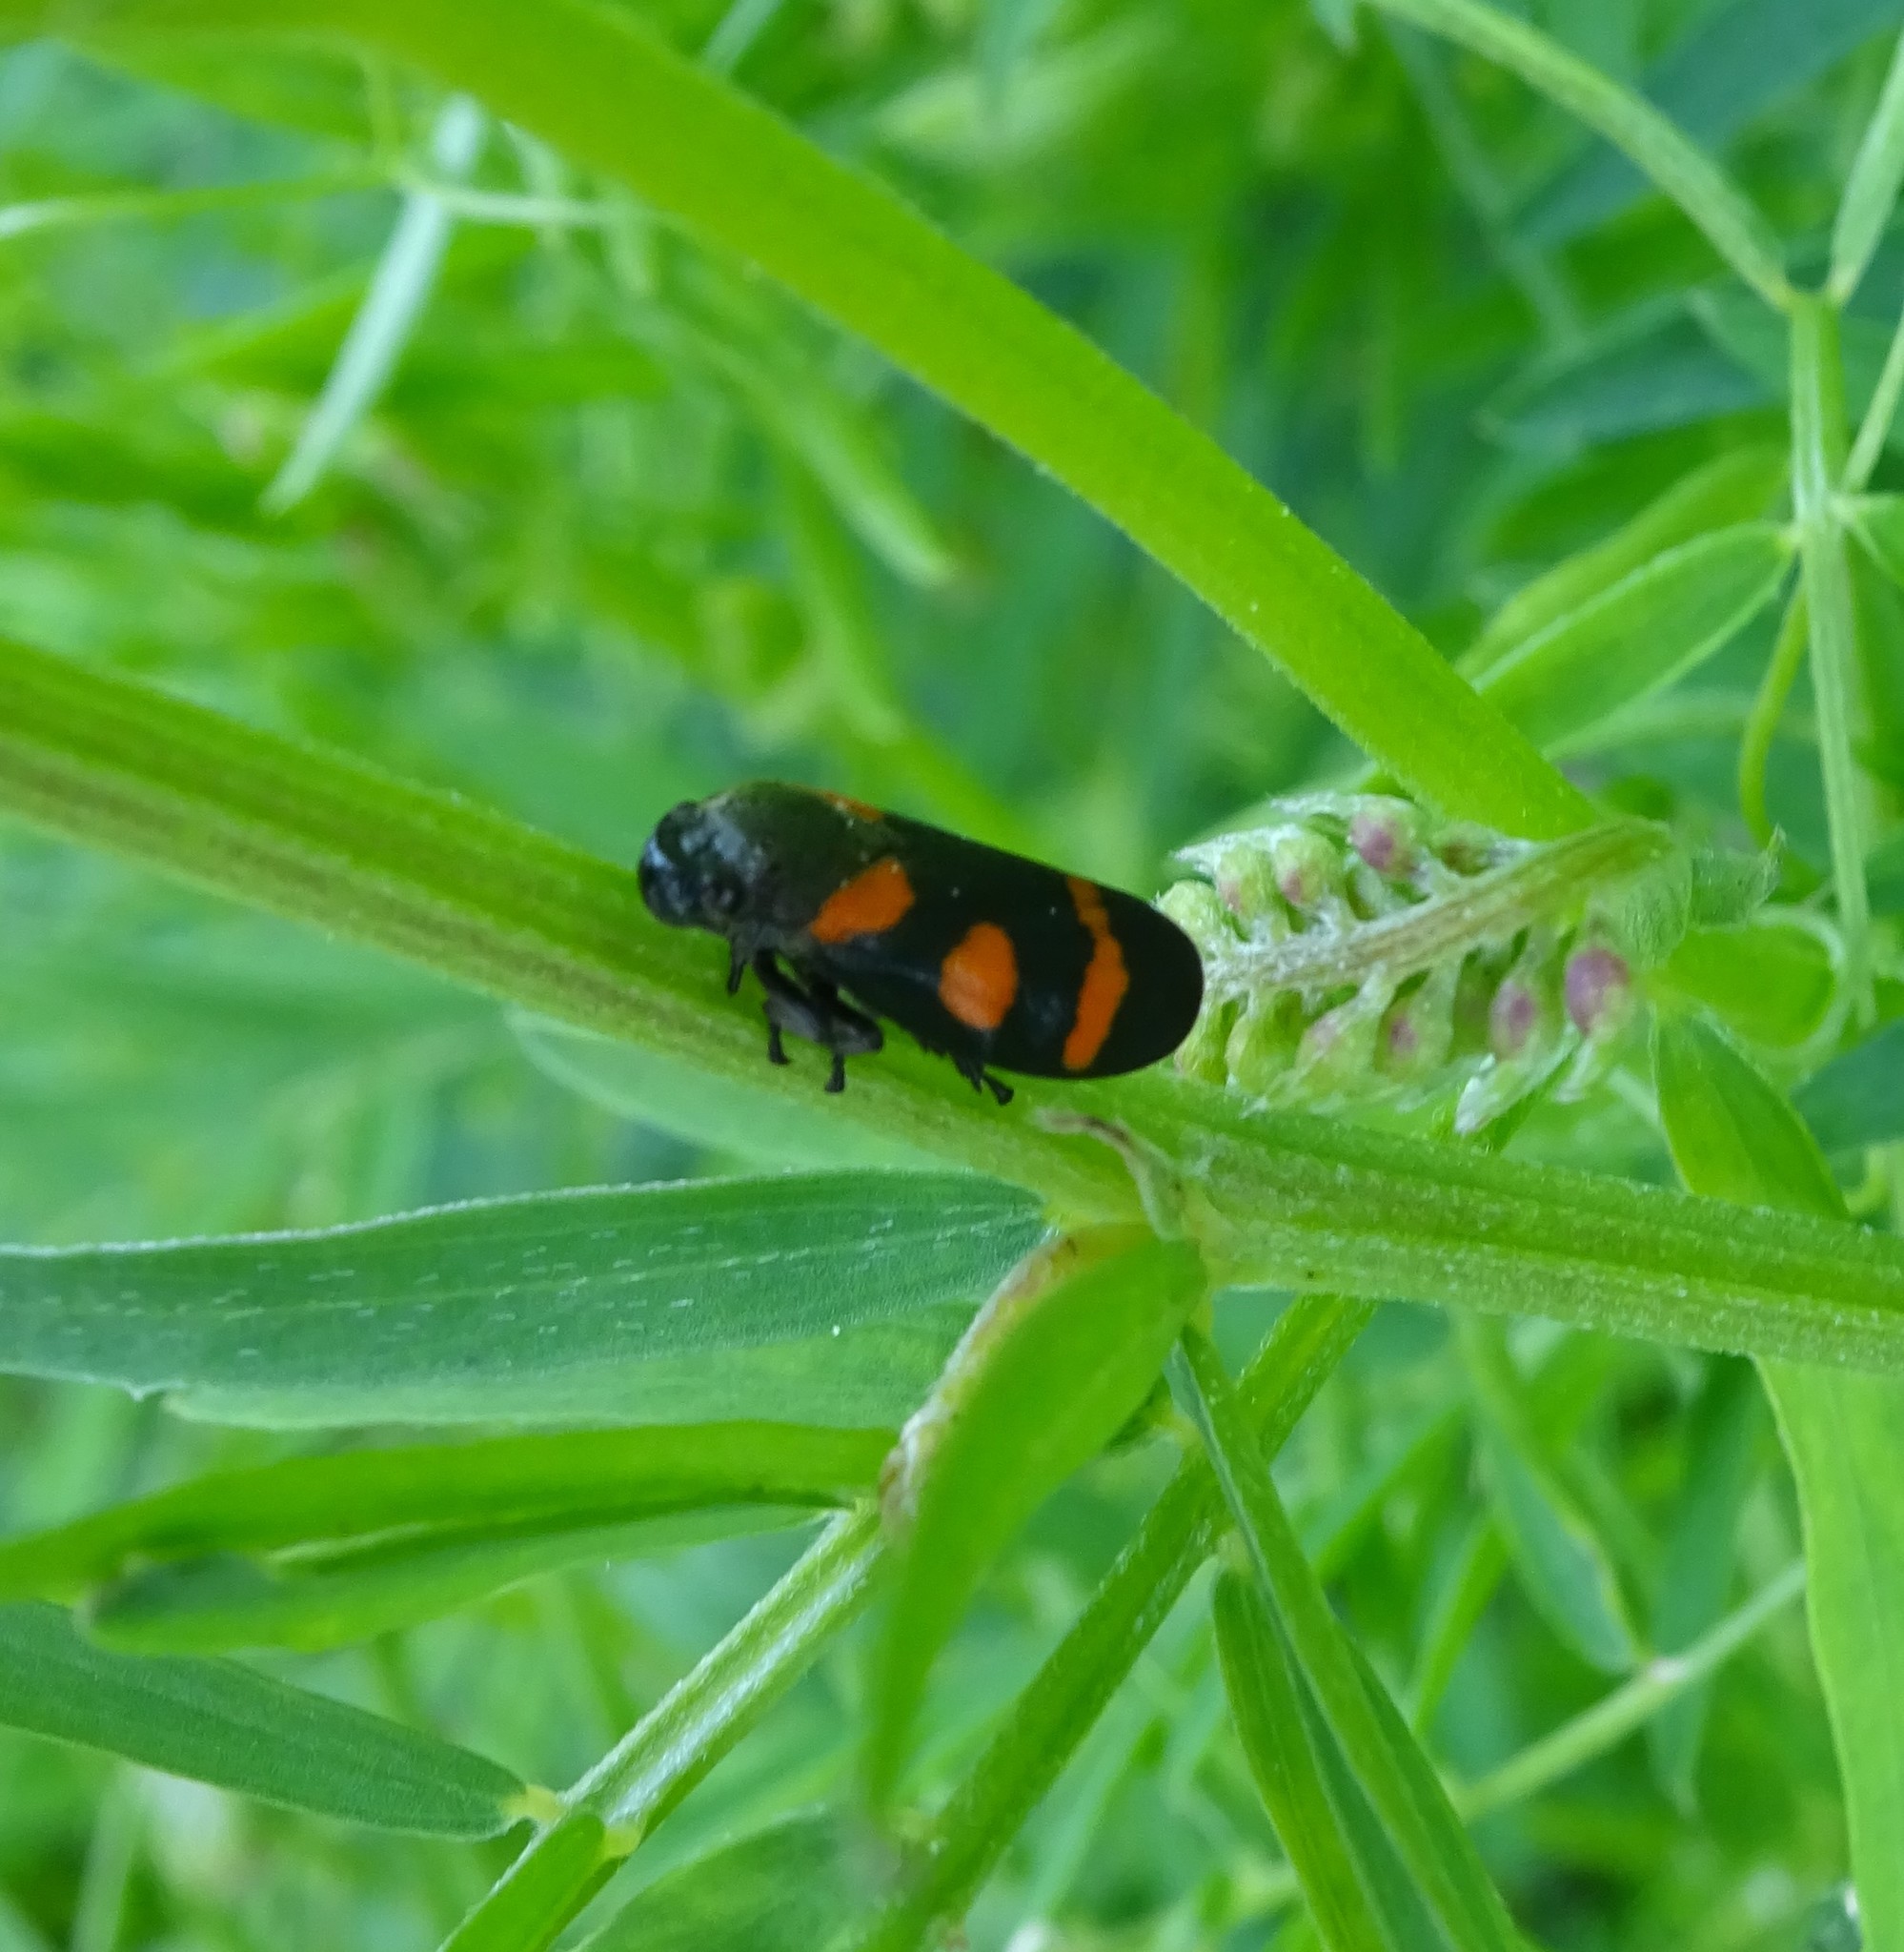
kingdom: Animalia
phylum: Arthropoda
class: Insecta
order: Hemiptera
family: Cercopidae
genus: Cercopis
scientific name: Cercopis sanguinolenta
